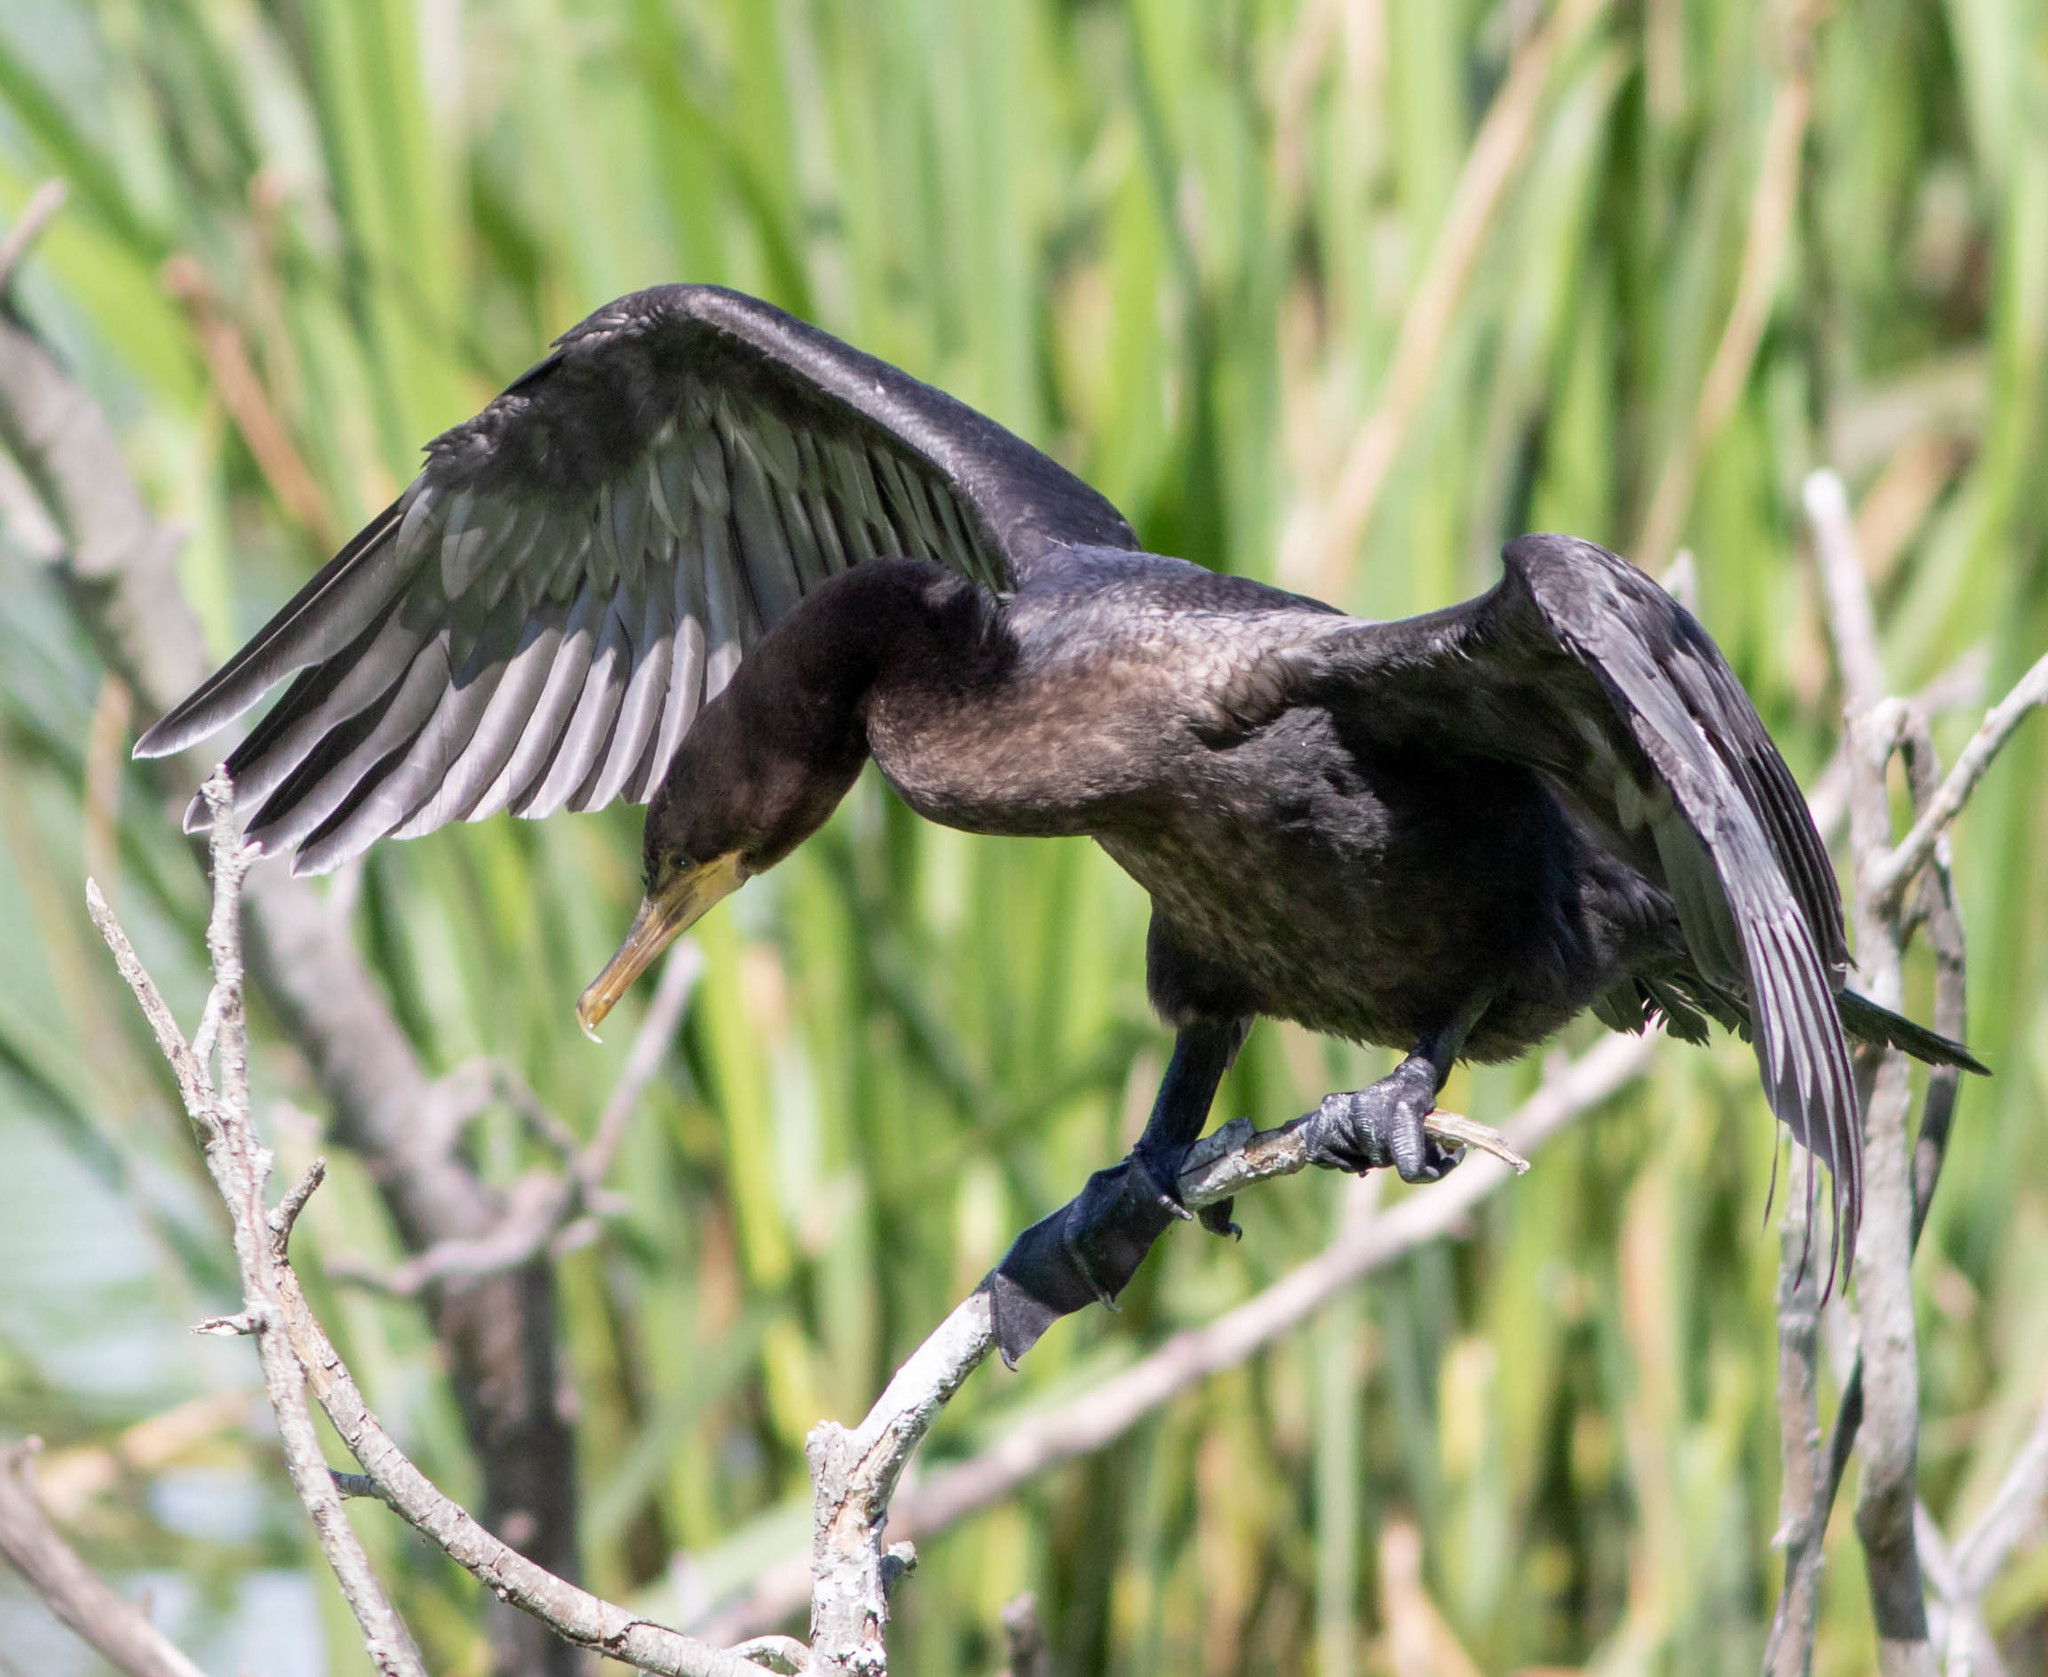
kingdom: Animalia
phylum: Chordata
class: Aves
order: Suliformes
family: Phalacrocoracidae
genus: Phalacrocorax
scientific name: Phalacrocorax brasilianus
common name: Neotropic cormorant
